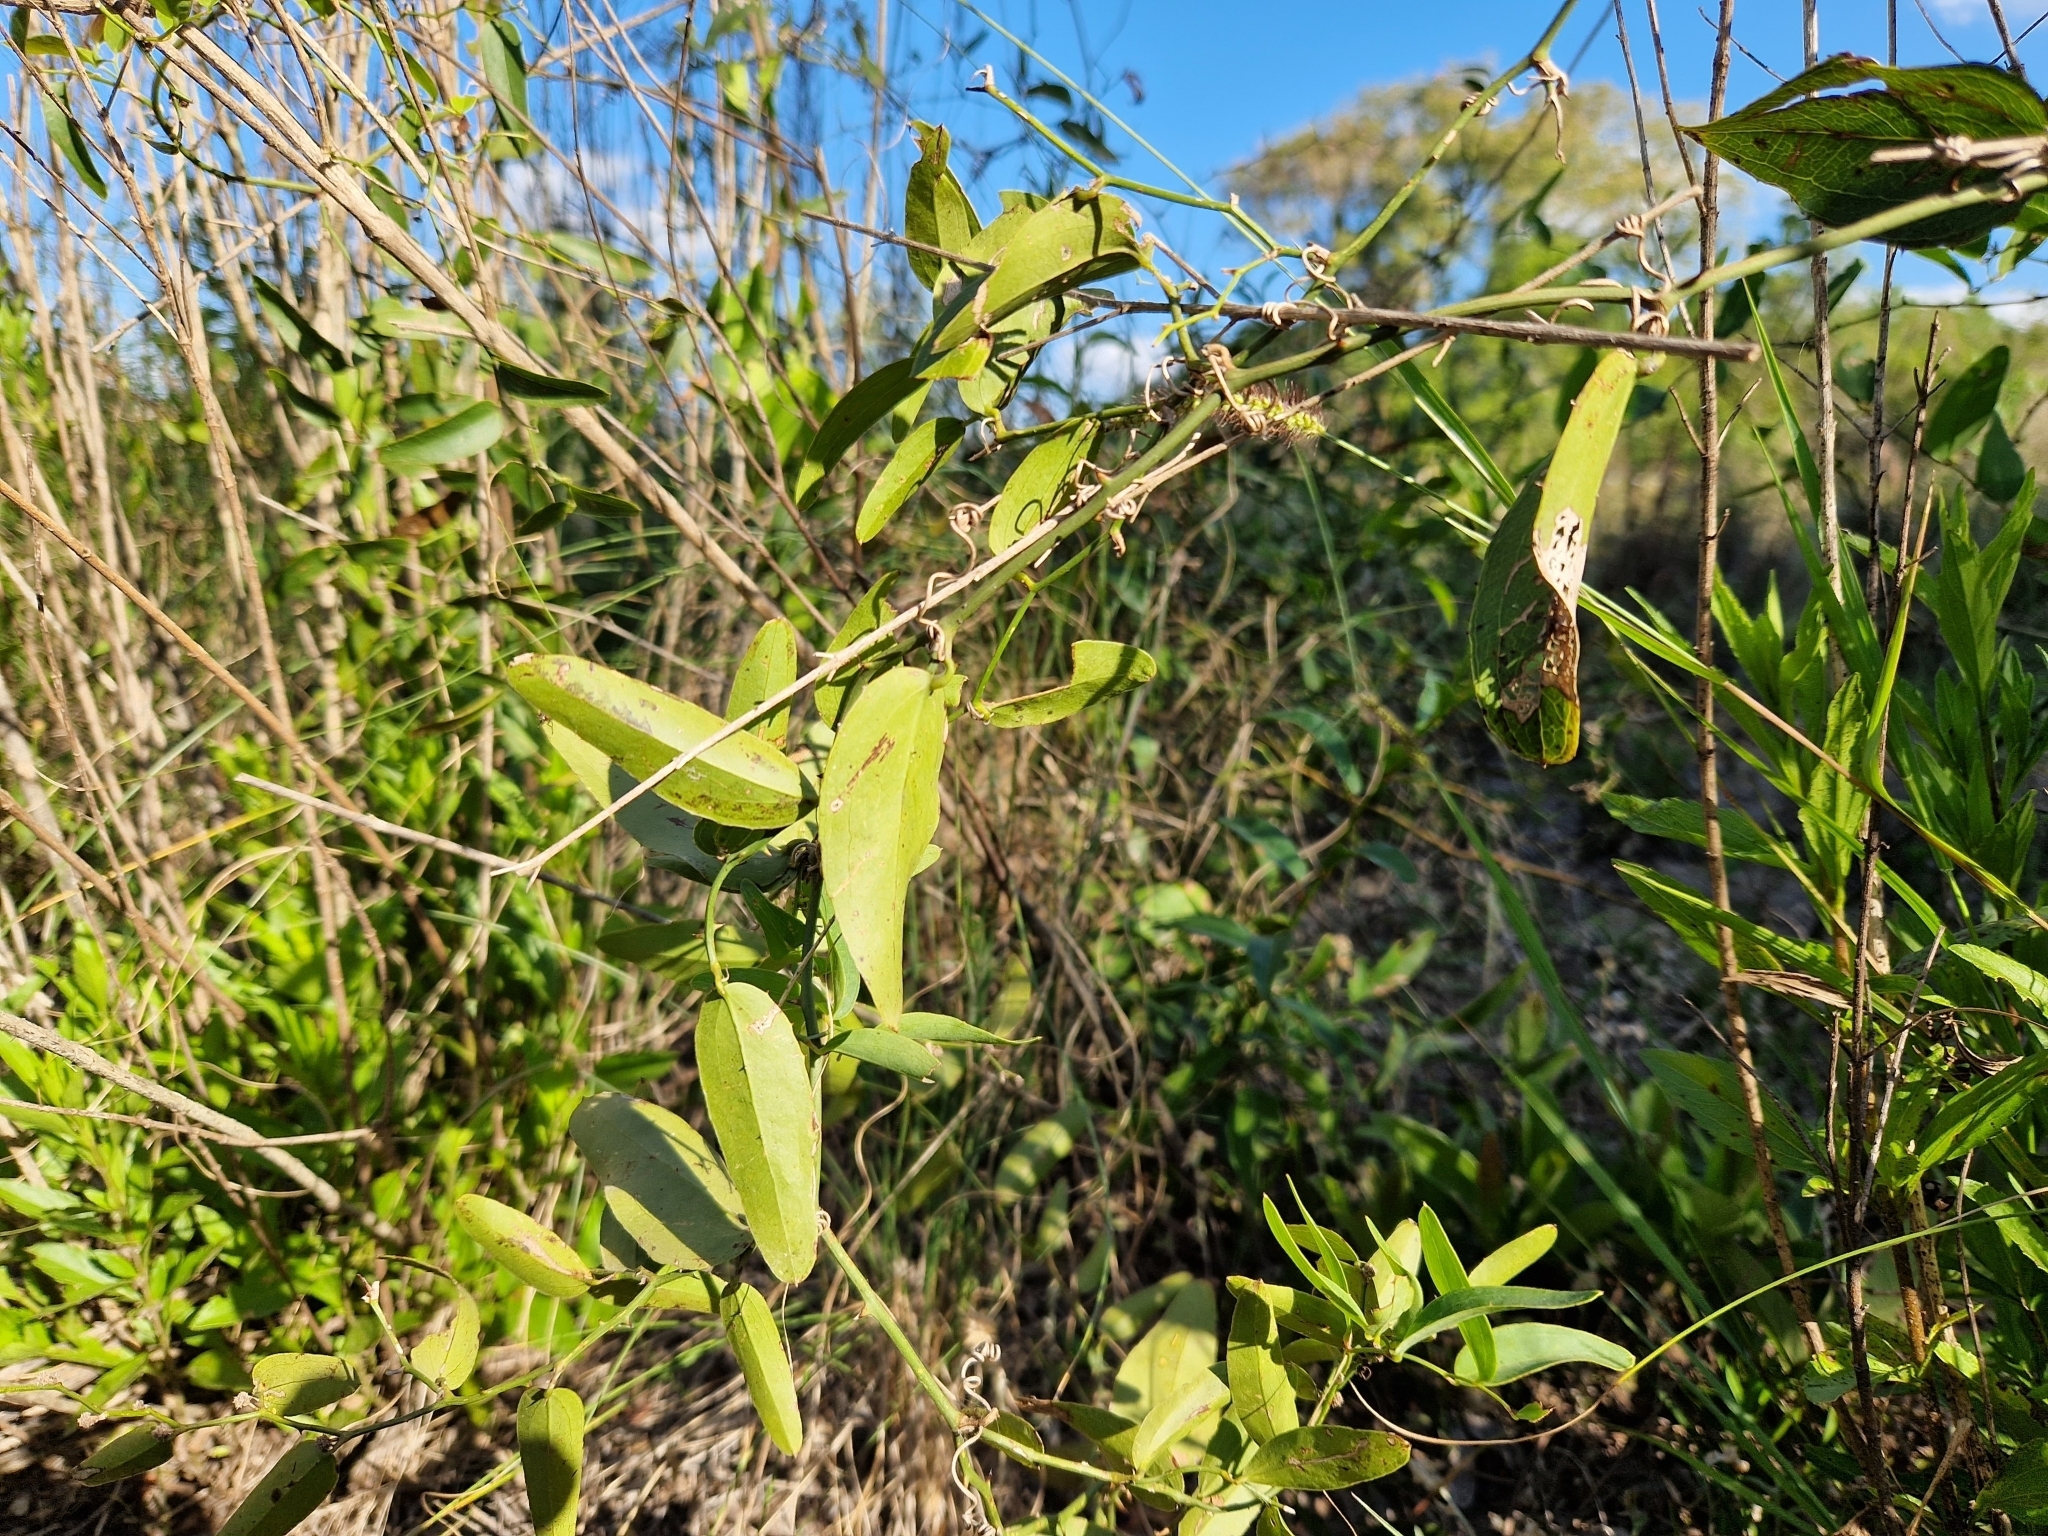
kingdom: Plantae
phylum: Tracheophyta
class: Liliopsida
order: Liliales
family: Smilacaceae
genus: Smilax
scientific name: Smilax campestris
